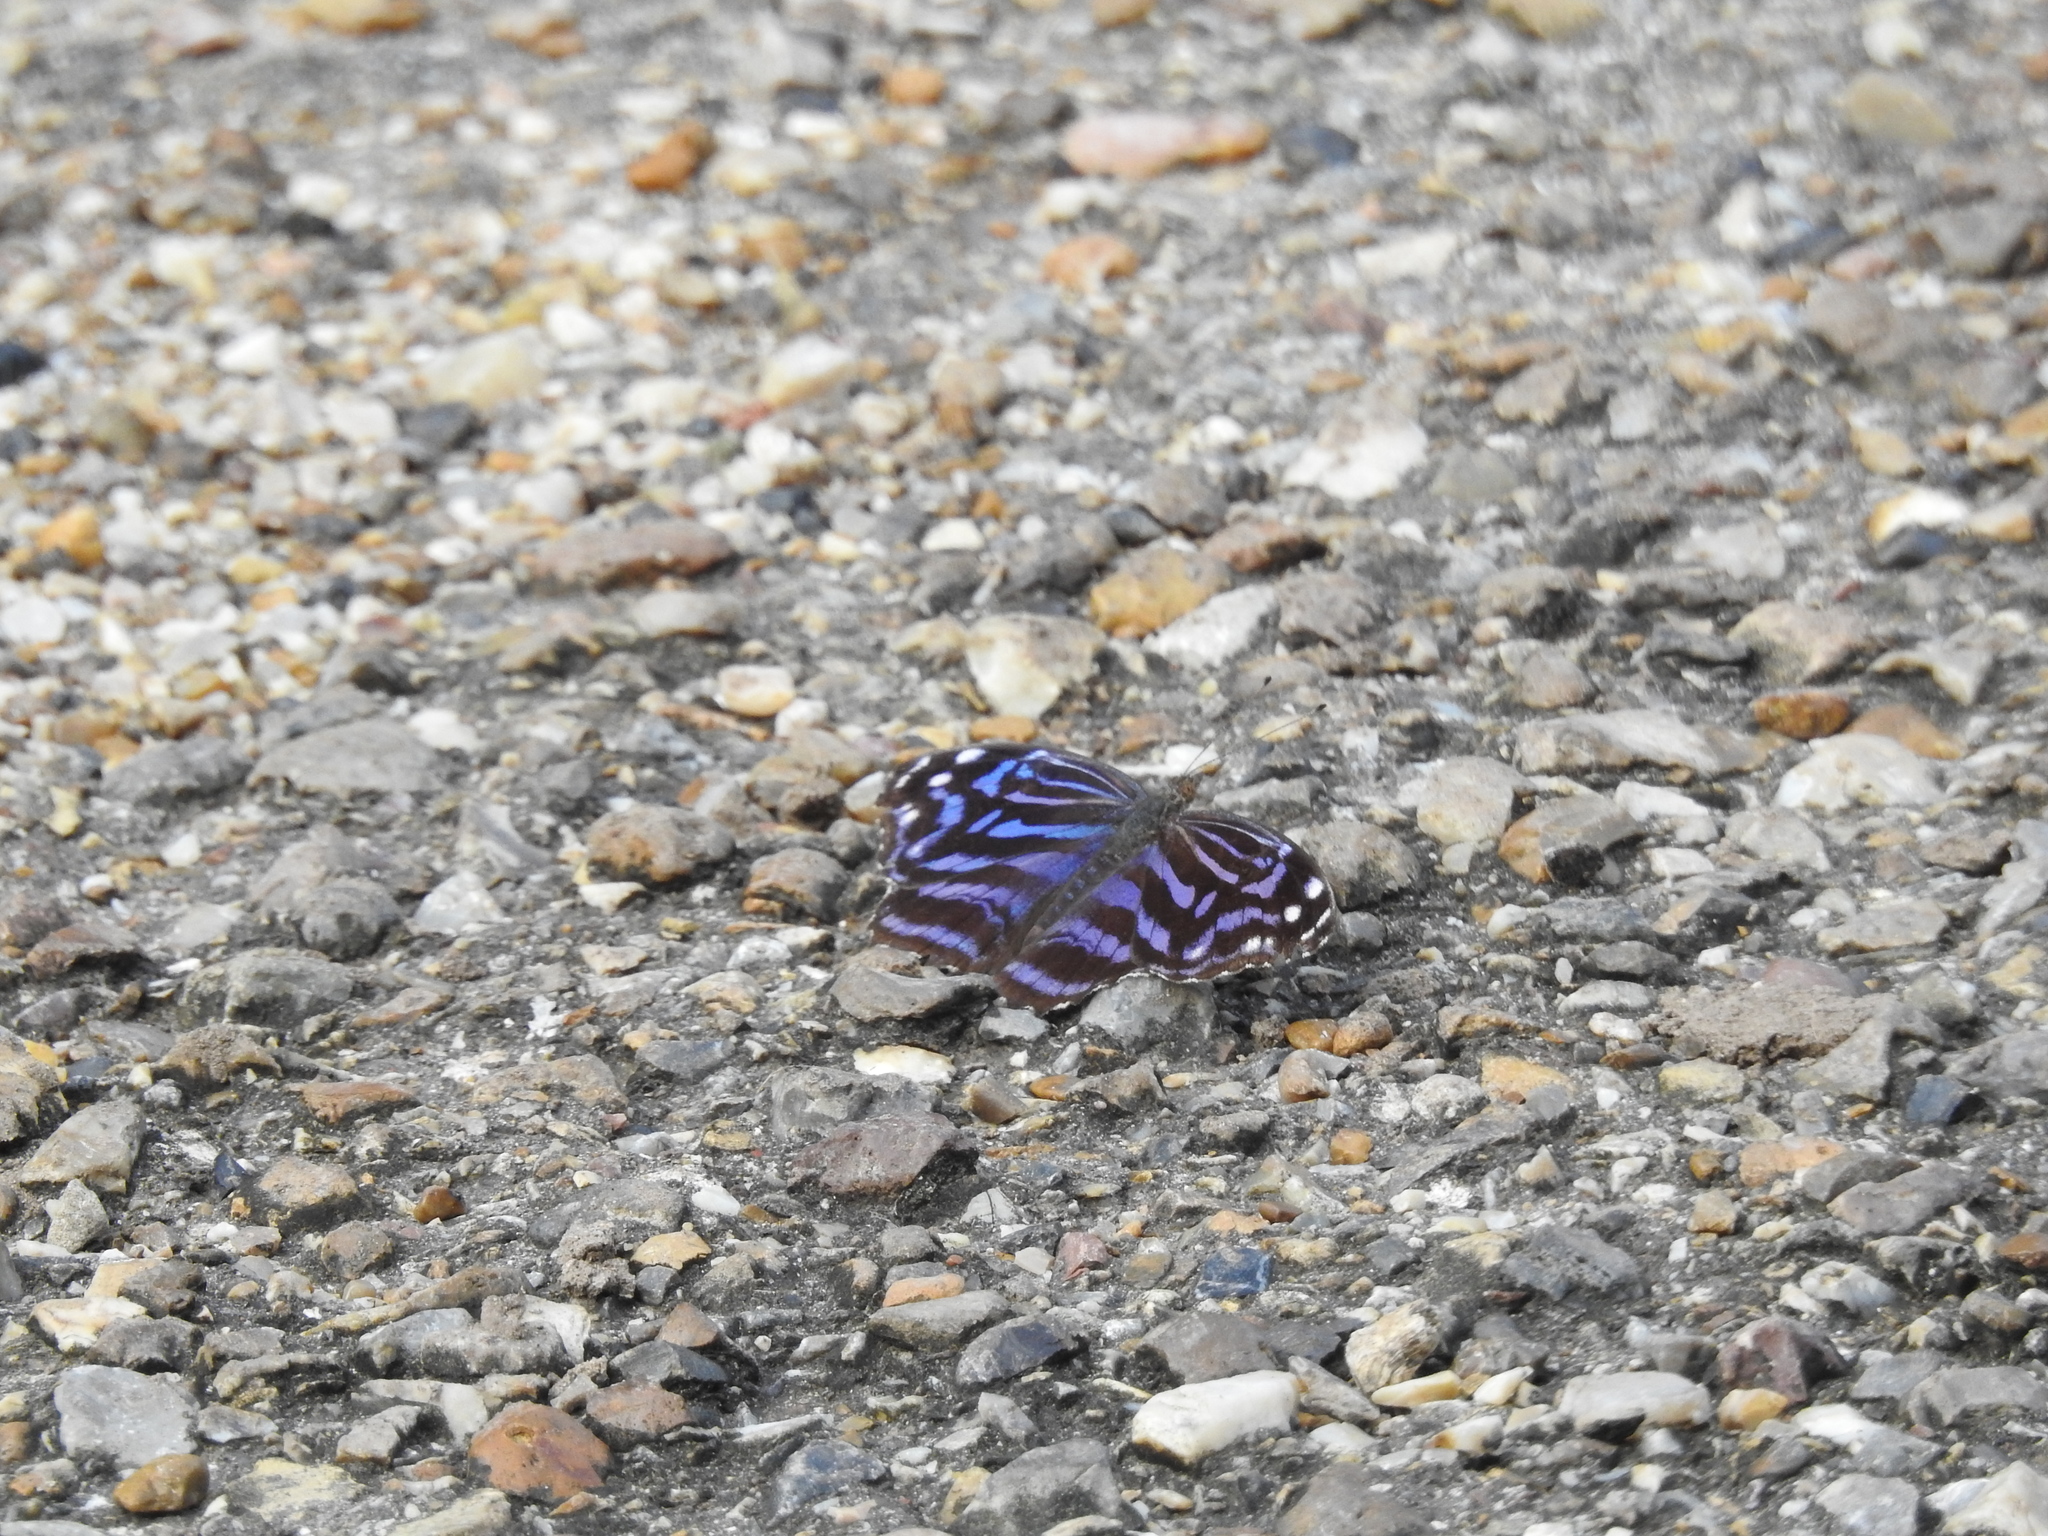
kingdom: Animalia
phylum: Arthropoda
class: Insecta
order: Lepidoptera
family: Nymphalidae
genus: Myscelia
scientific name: Myscelia ethusa
